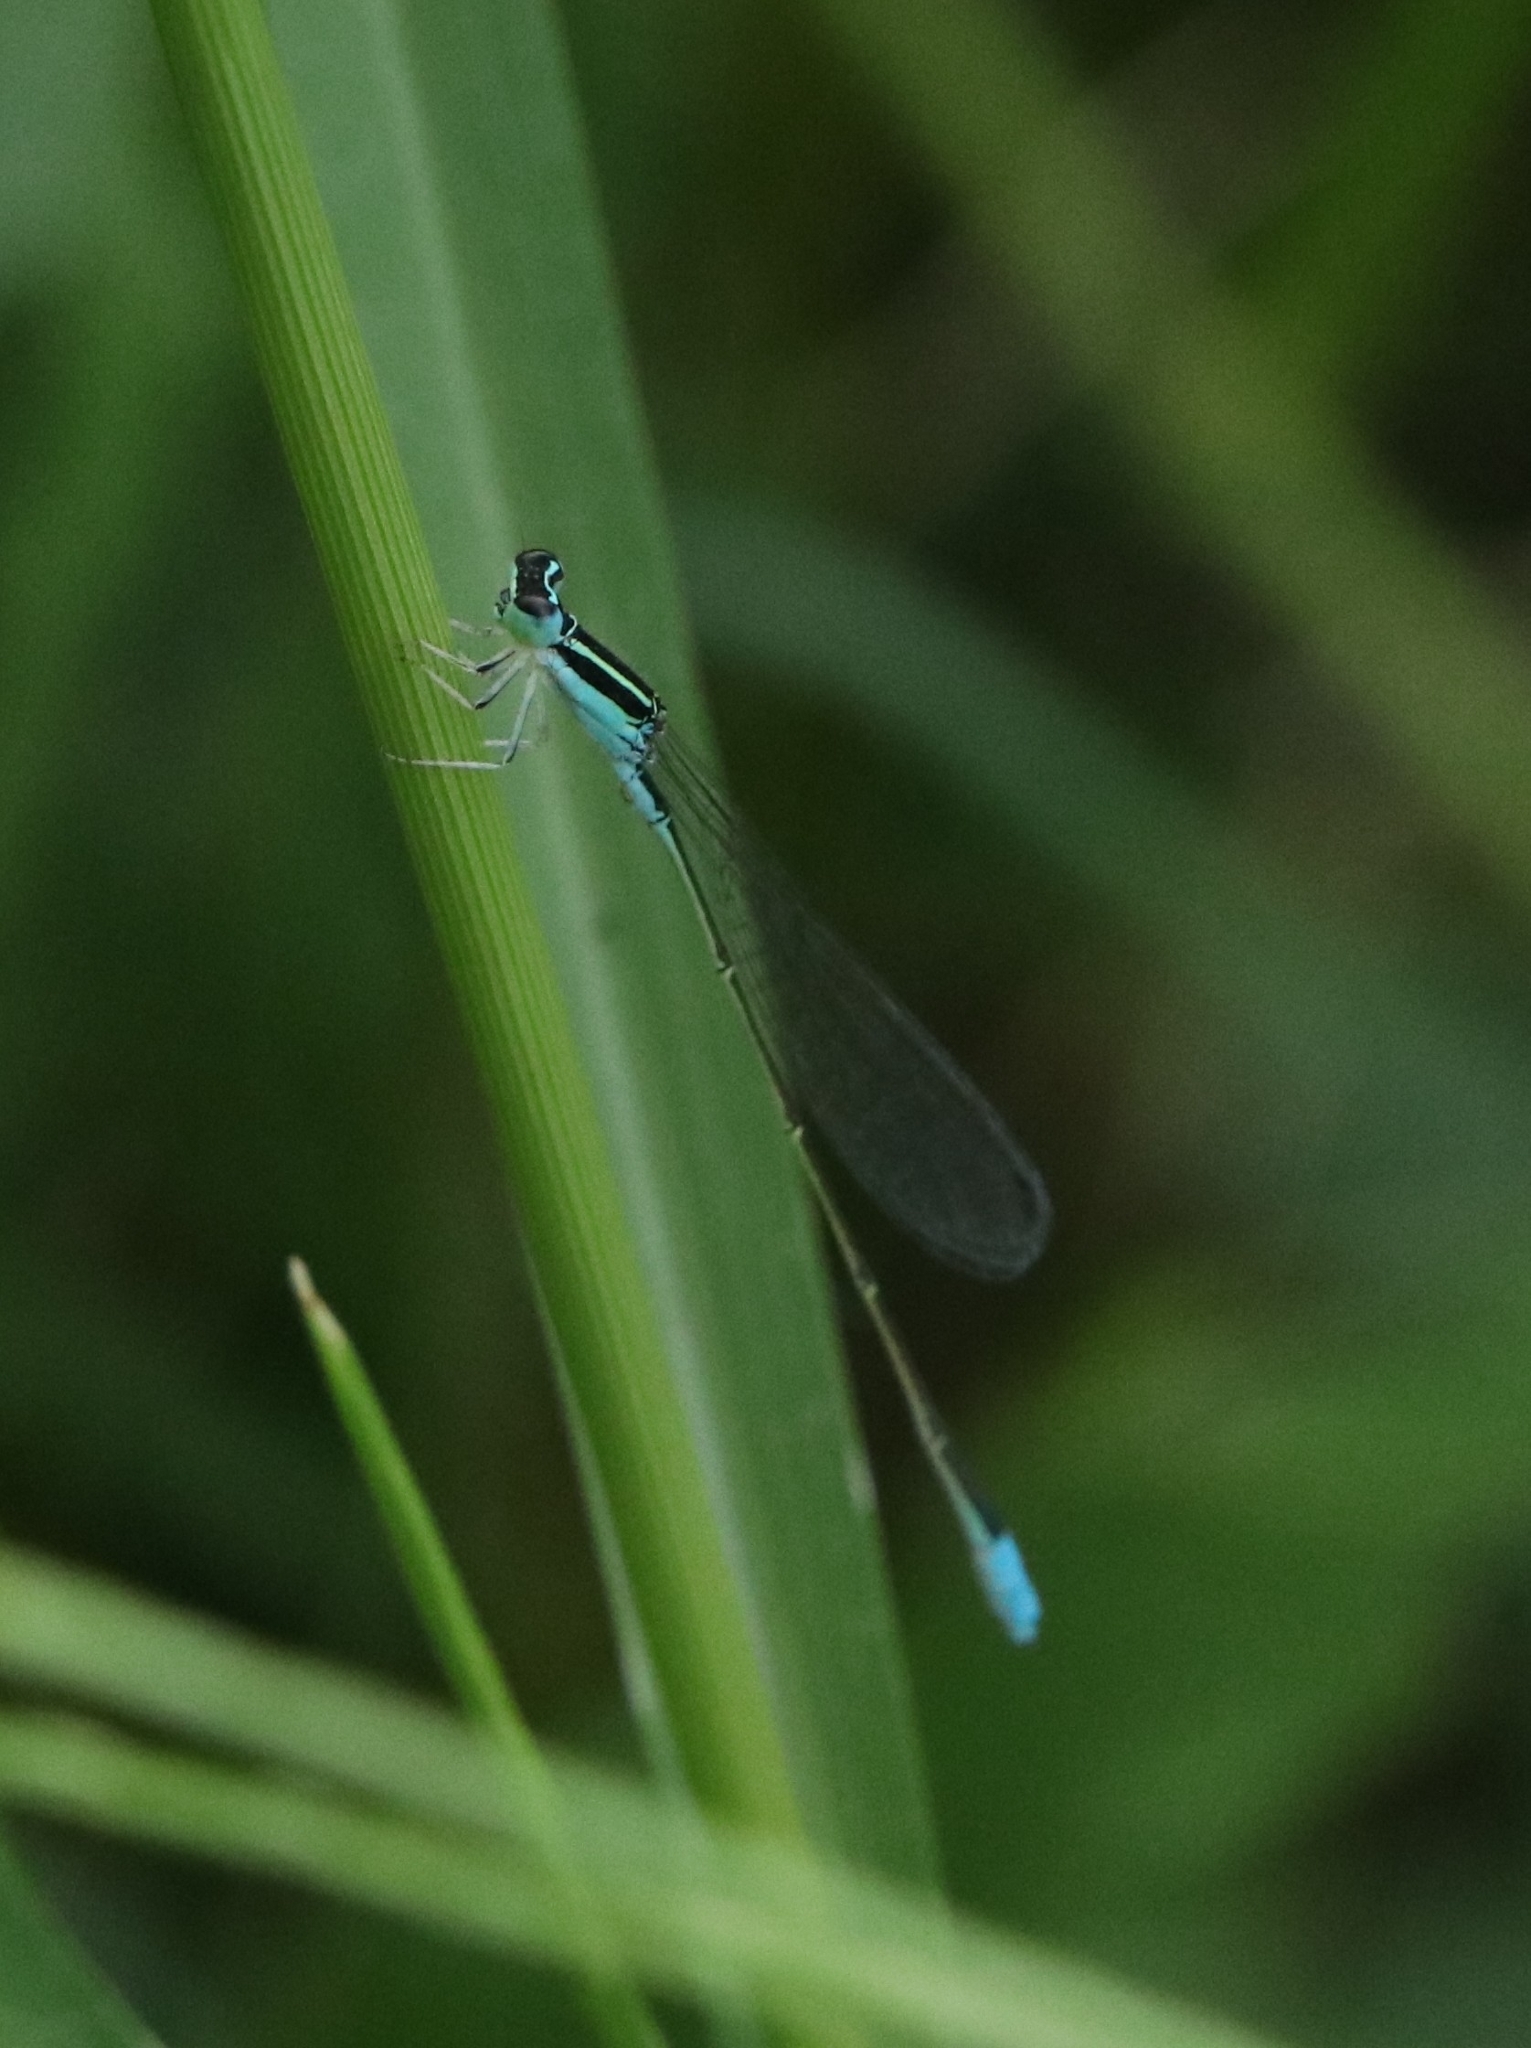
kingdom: Animalia
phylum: Arthropoda
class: Insecta
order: Odonata
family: Coenagrionidae
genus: Aciagrion
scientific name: Aciagrion occidentale
